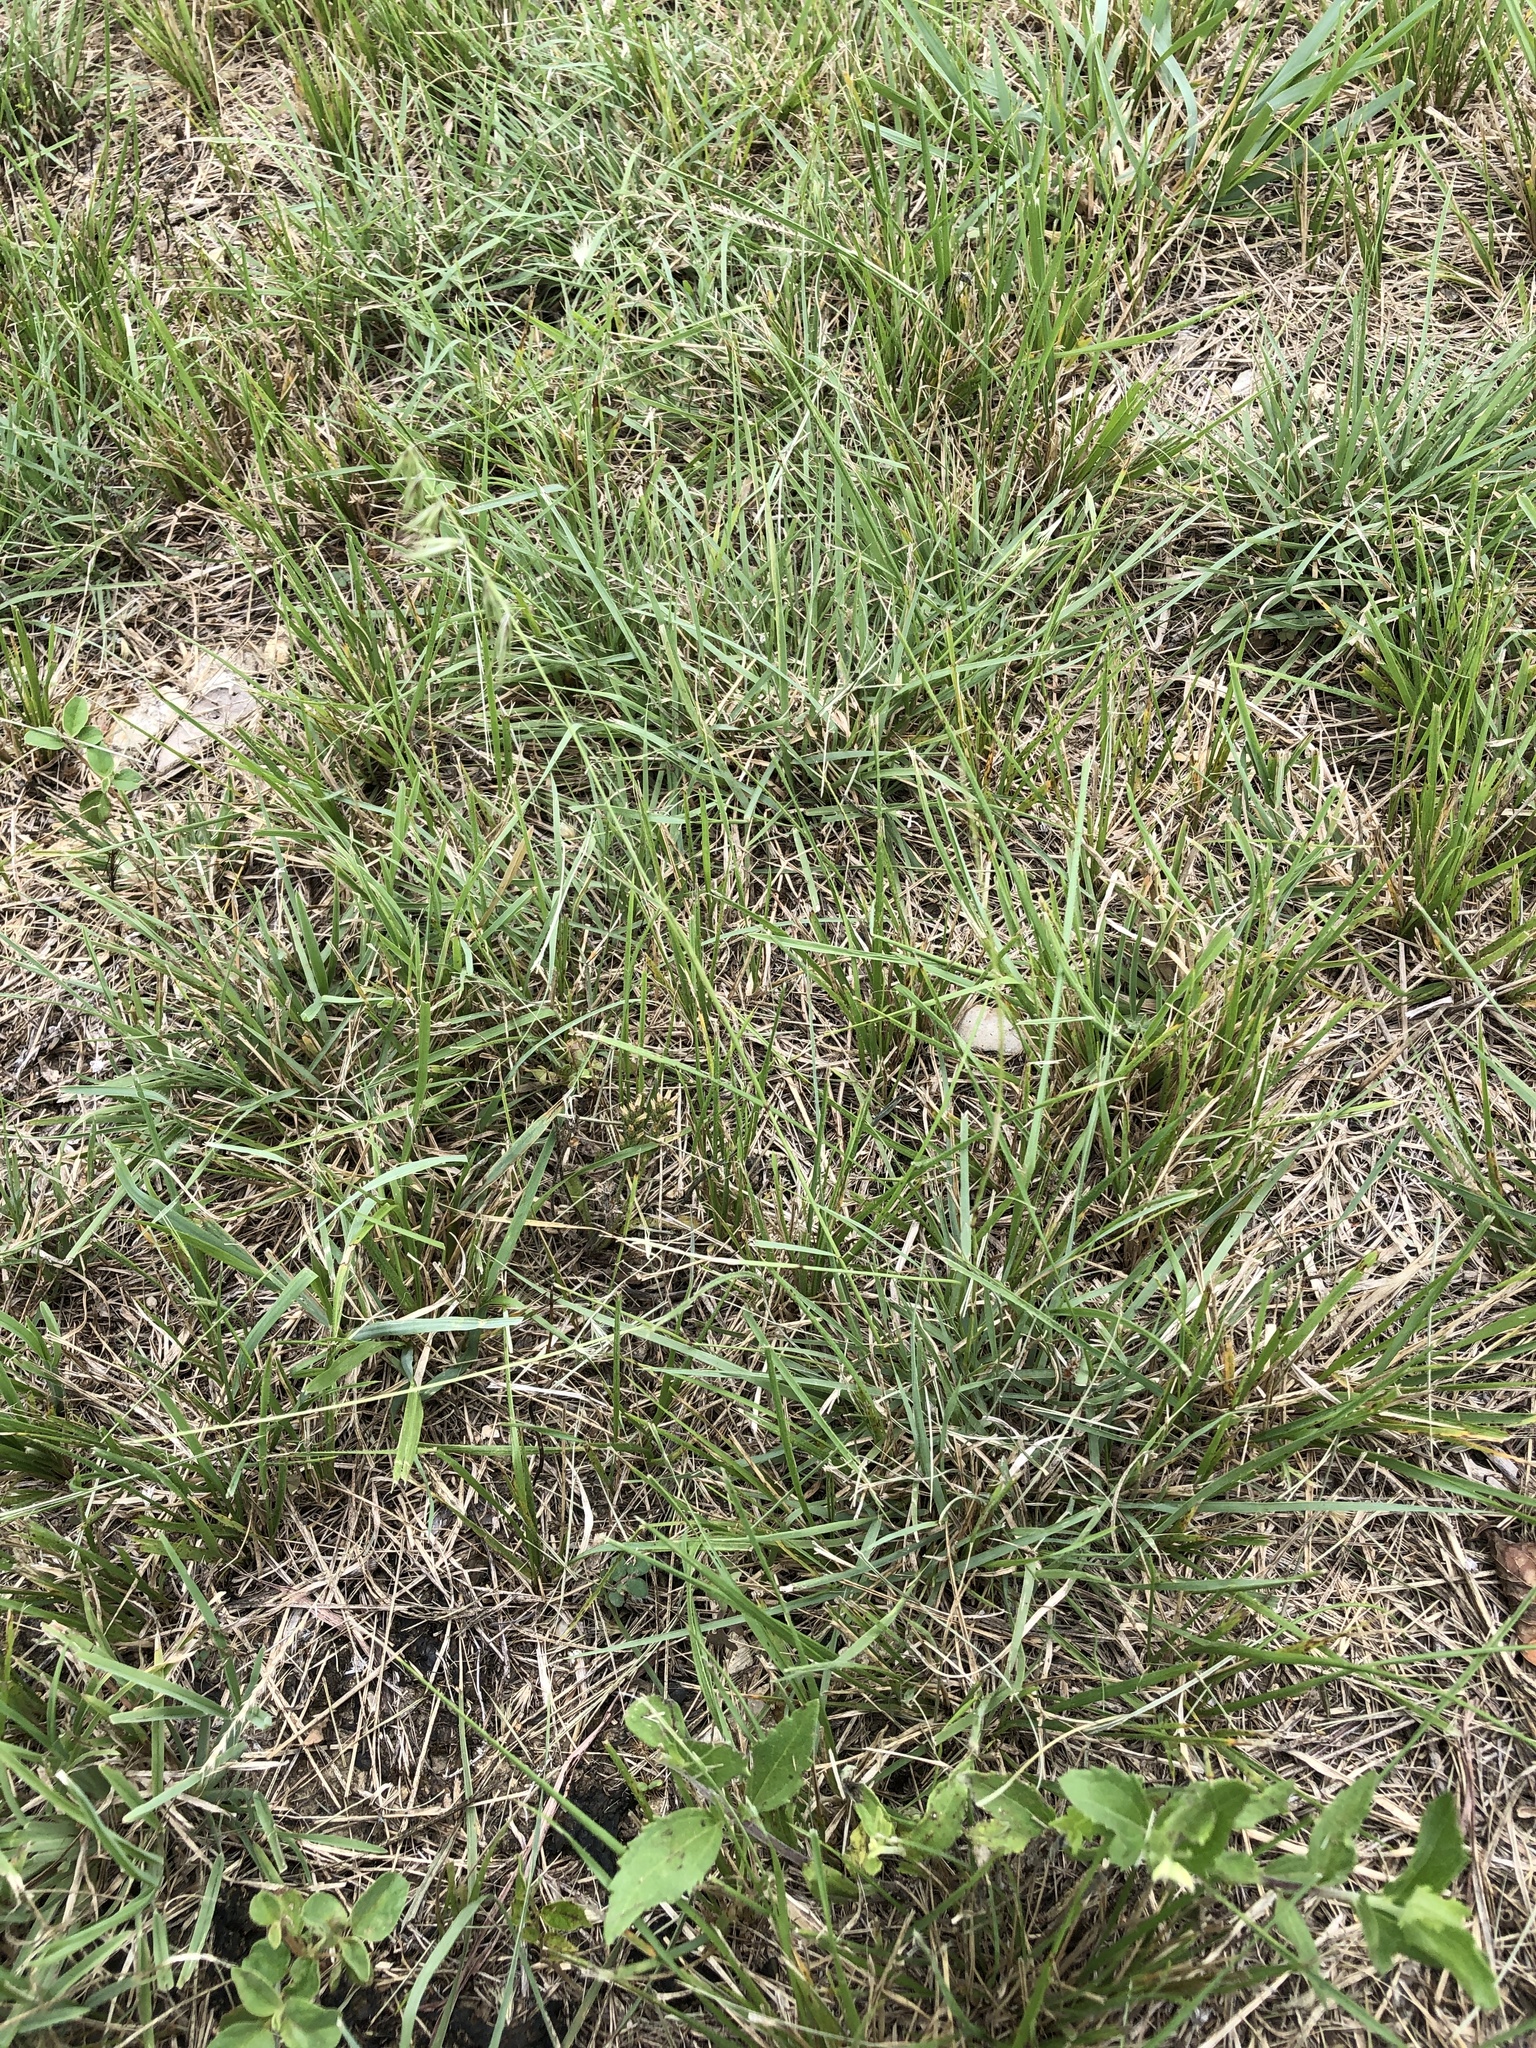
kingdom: Plantae
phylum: Tracheophyta
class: Liliopsida
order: Poales
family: Poaceae
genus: Bouteloua
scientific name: Bouteloua rigidiseta
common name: Texas grama
